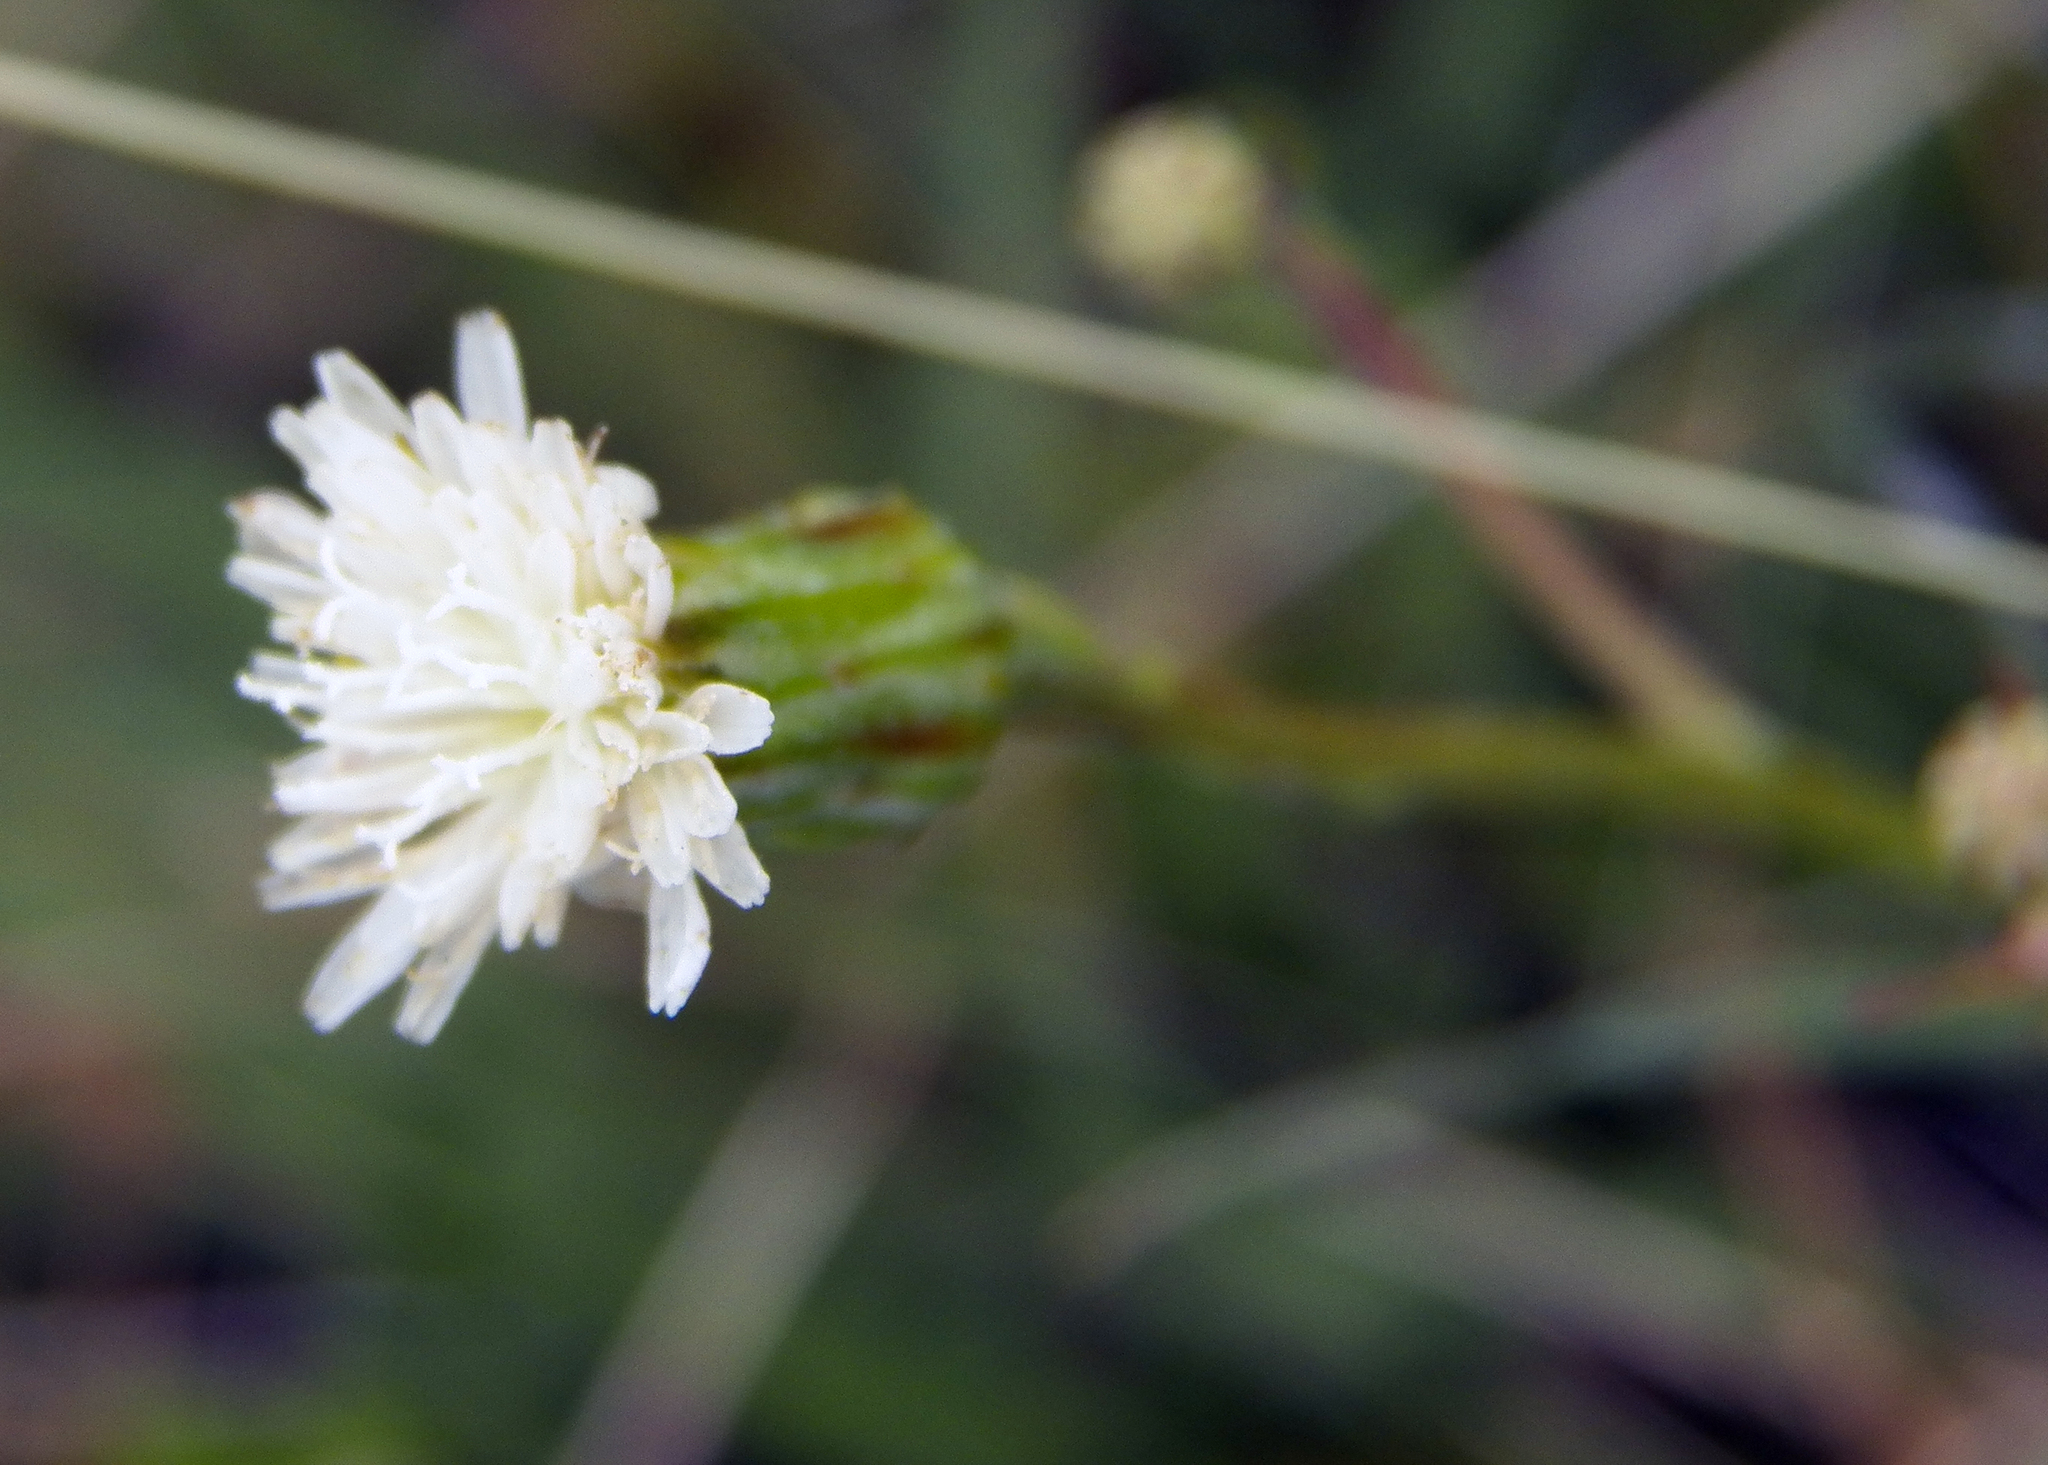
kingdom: Plantae
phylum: Tracheophyta
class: Magnoliopsida
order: Asterales
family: Asteraceae
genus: Hypochaeris
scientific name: Hypochaeris albiflora
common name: White flatweed
